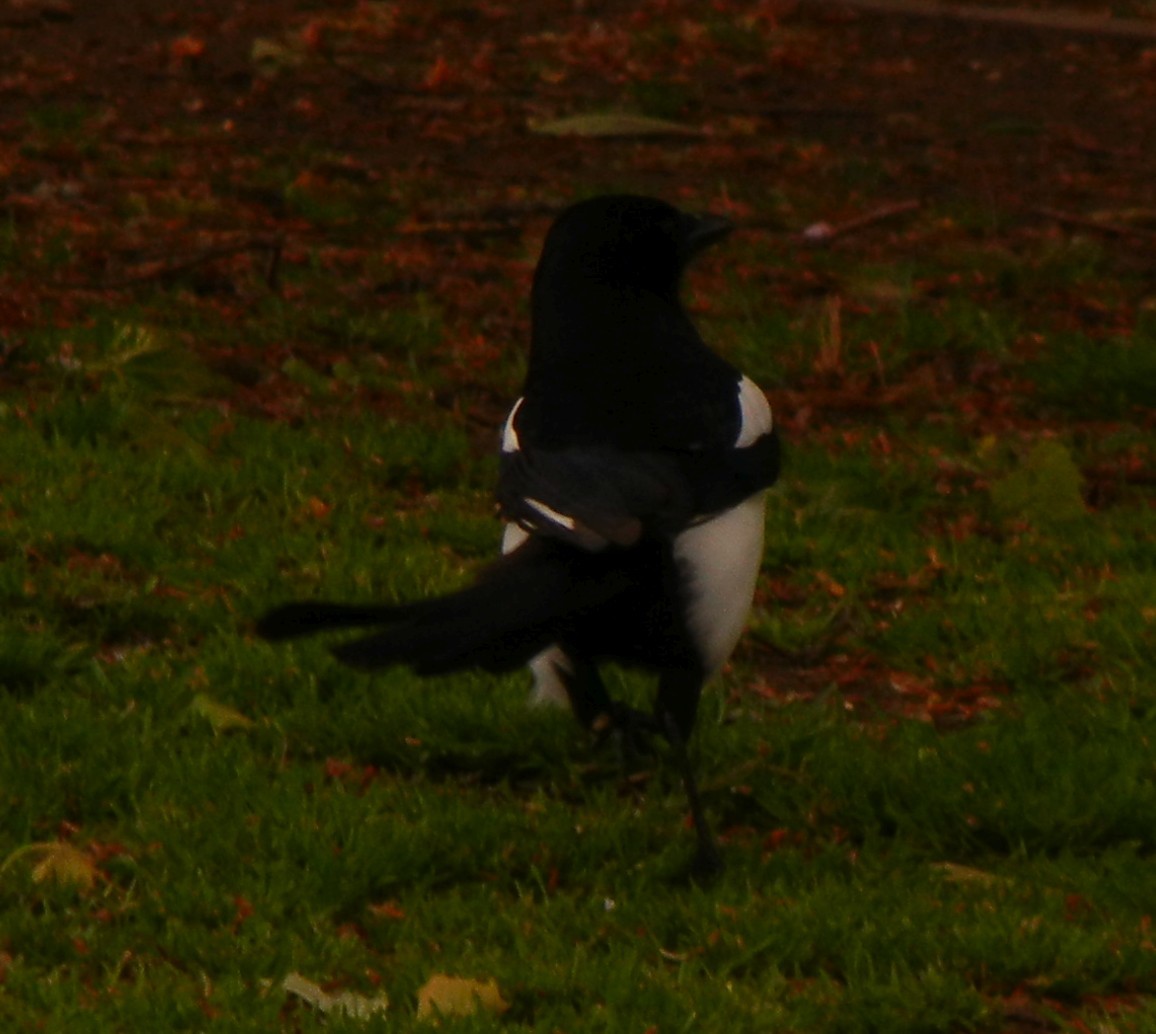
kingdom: Animalia
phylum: Chordata
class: Aves
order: Passeriformes
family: Corvidae
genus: Pica
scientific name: Pica pica
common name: Eurasian magpie
